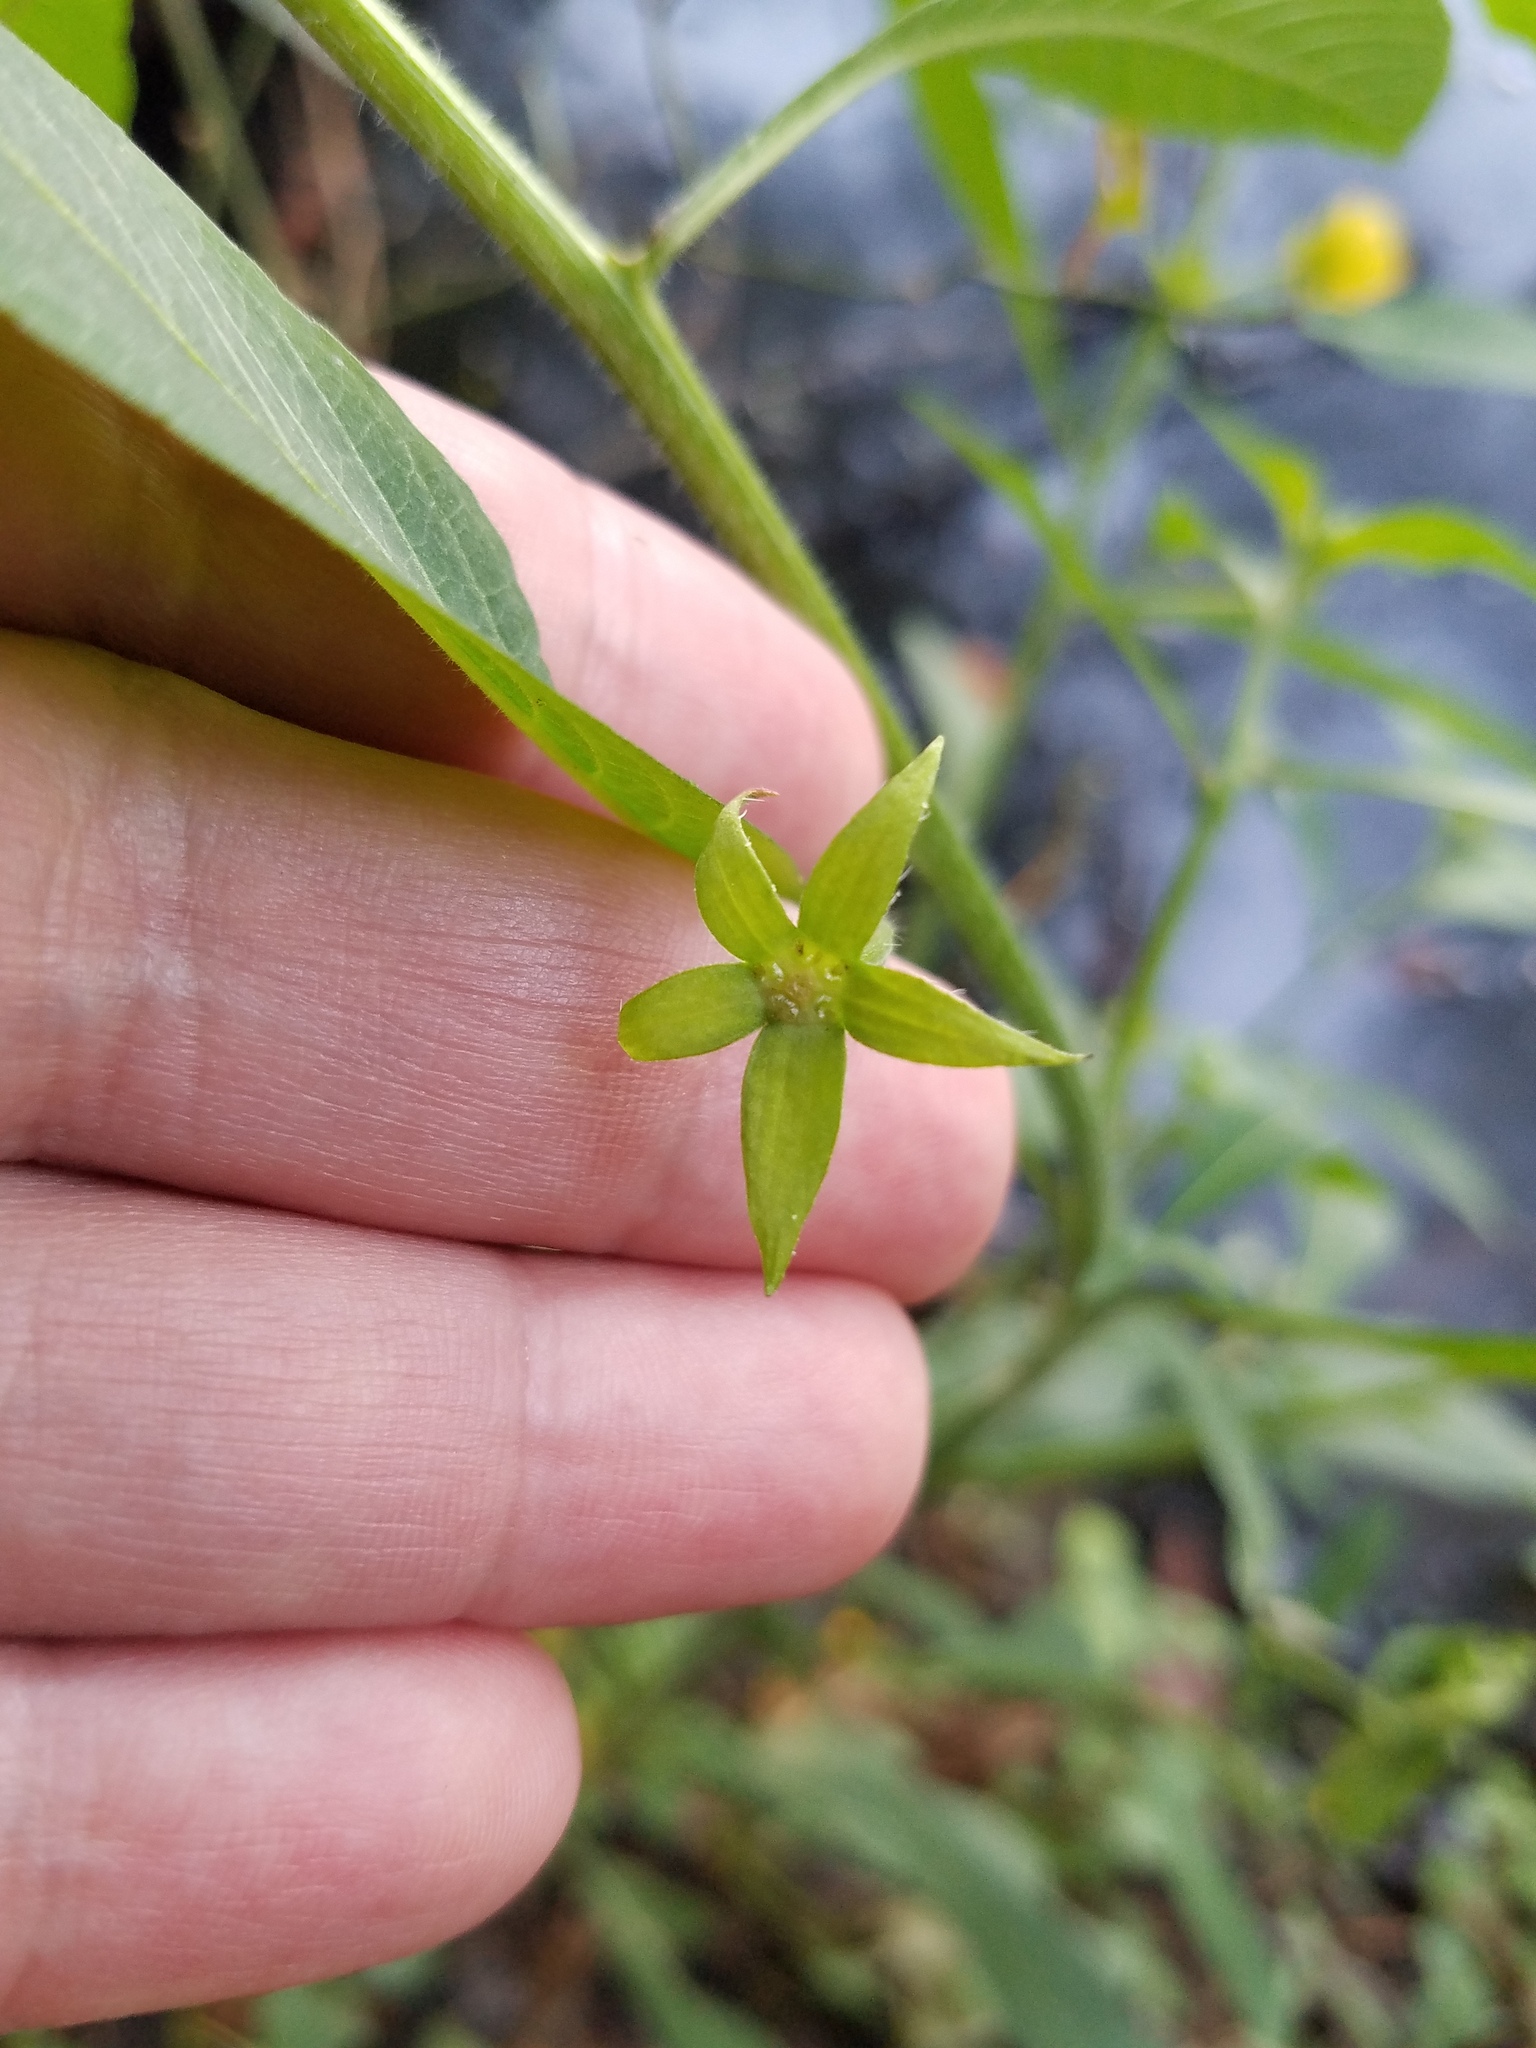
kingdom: Plantae
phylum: Tracheophyta
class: Magnoliopsida
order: Myrtales
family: Onagraceae
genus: Ludwigia
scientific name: Ludwigia leptocarpa
